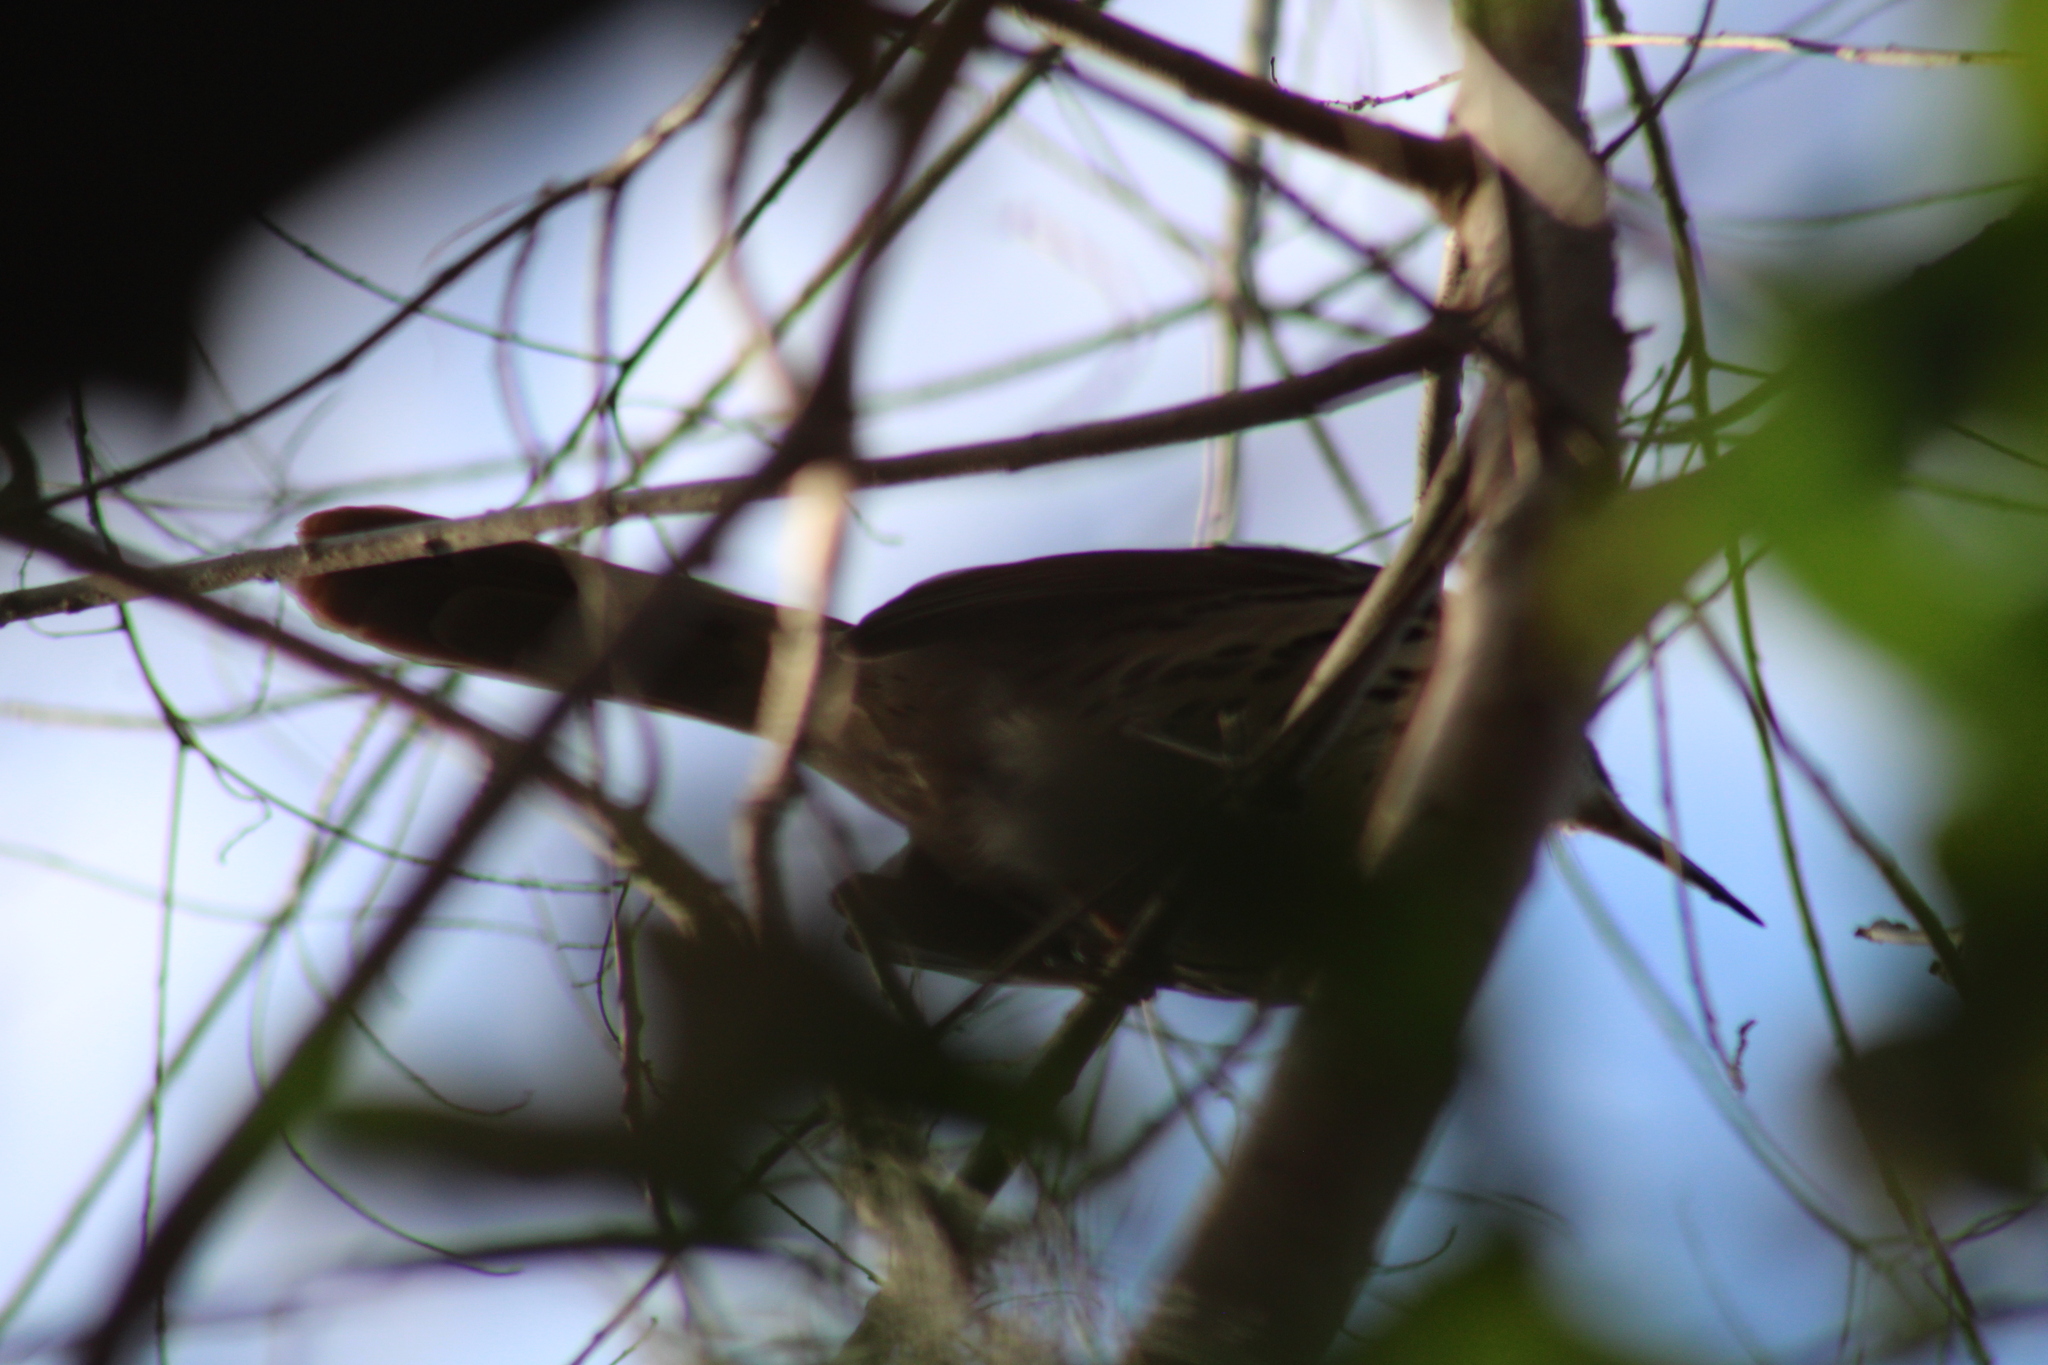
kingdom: Animalia
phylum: Chordata
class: Aves
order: Passeriformes
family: Mimidae
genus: Toxostoma
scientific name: Toxostoma rufum
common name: Brown thrasher
